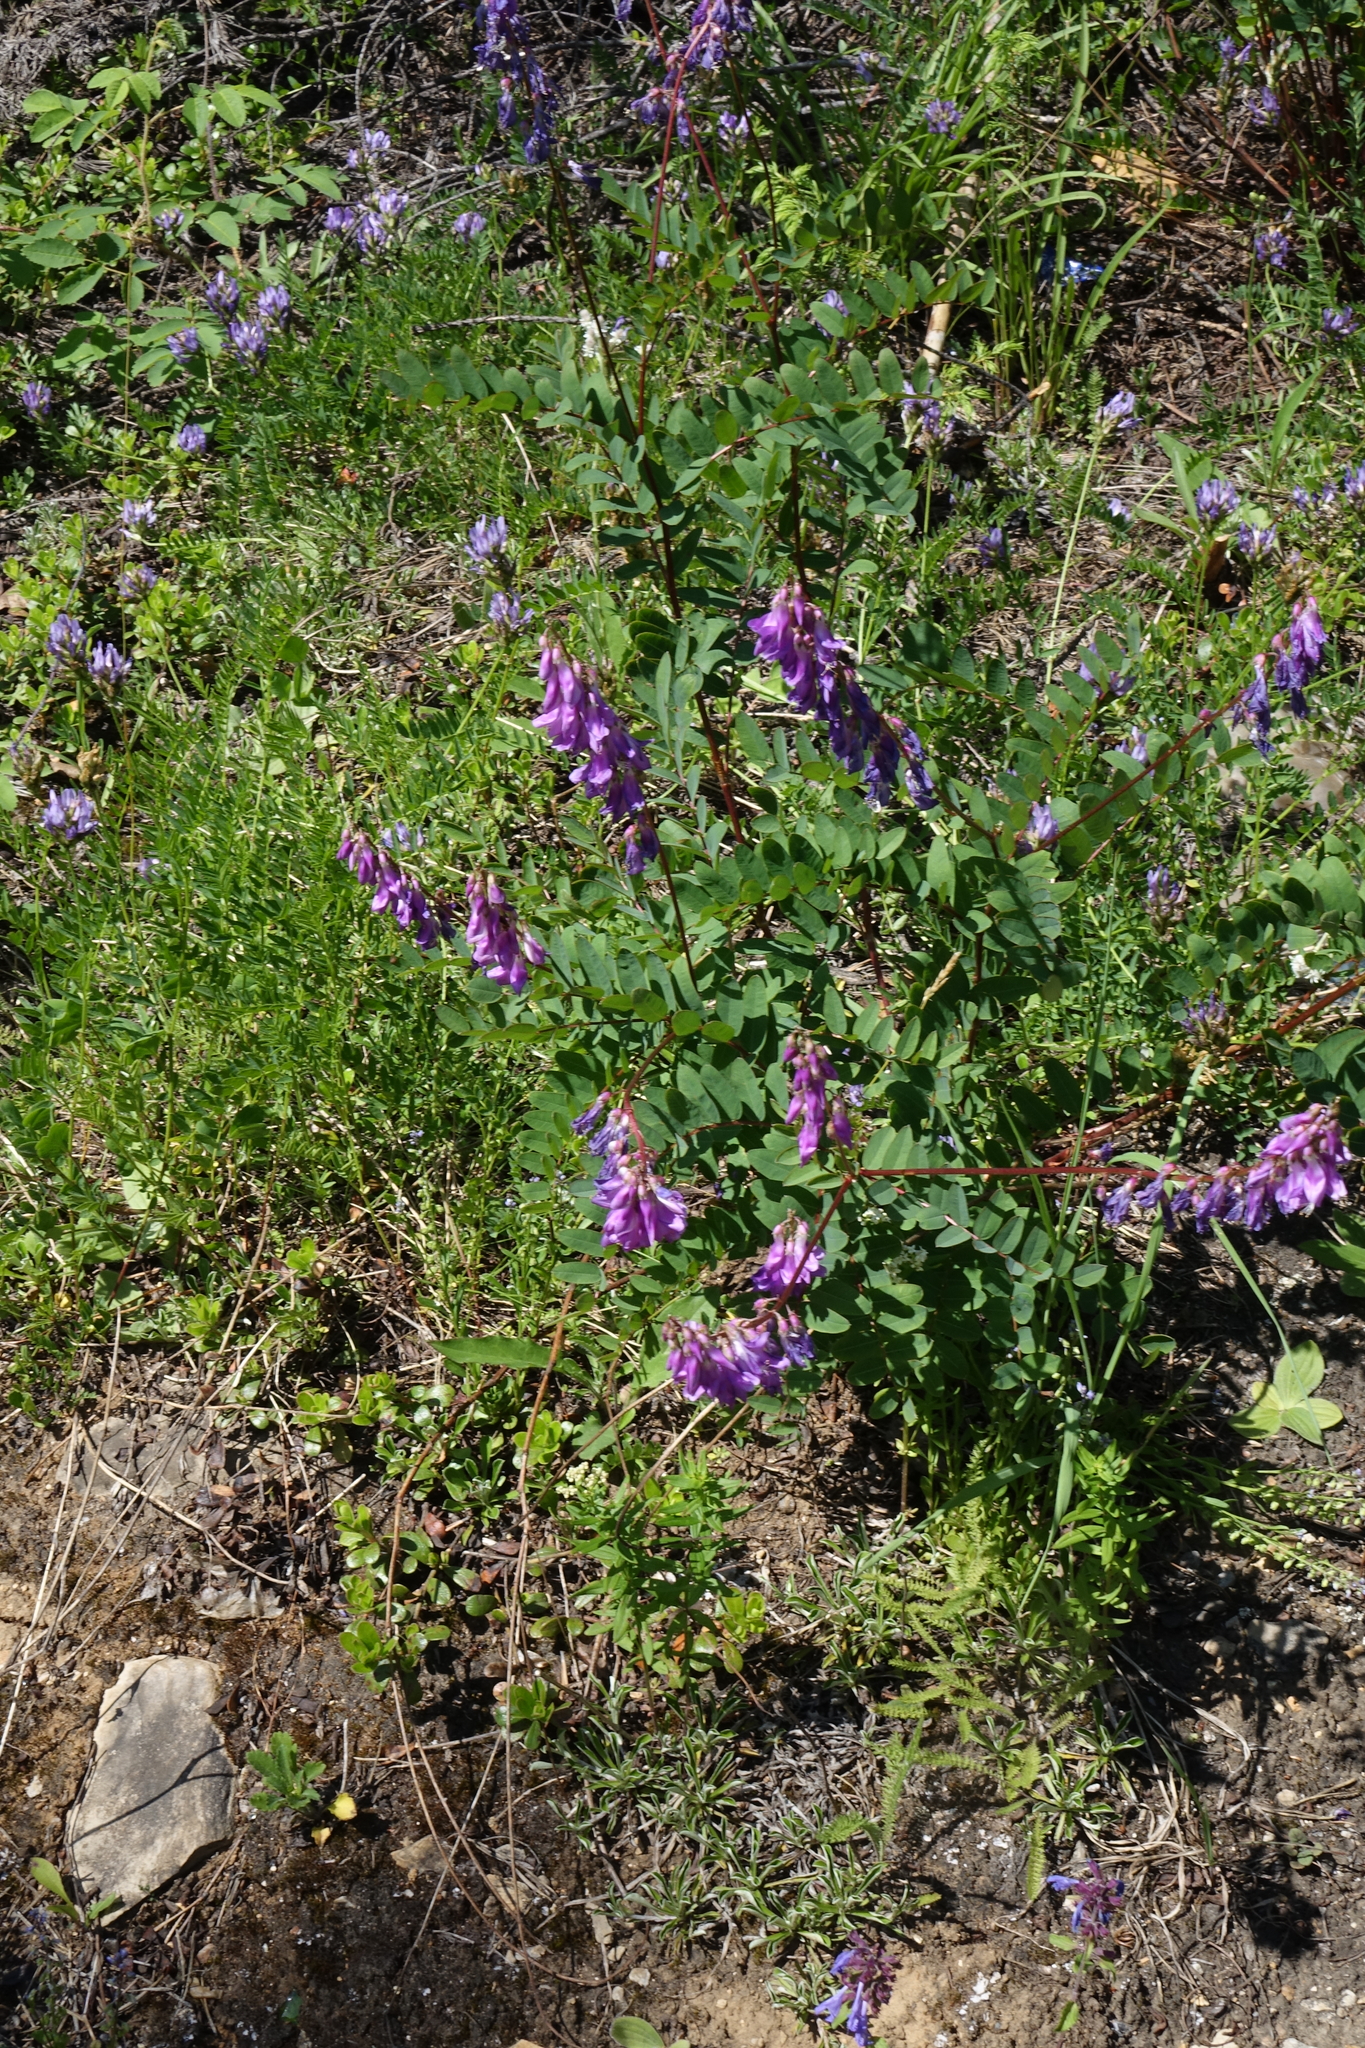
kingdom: Plantae
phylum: Tracheophyta
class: Magnoliopsida
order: Fabales
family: Fabaceae
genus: Hedysarum
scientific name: Hedysarum branthii
